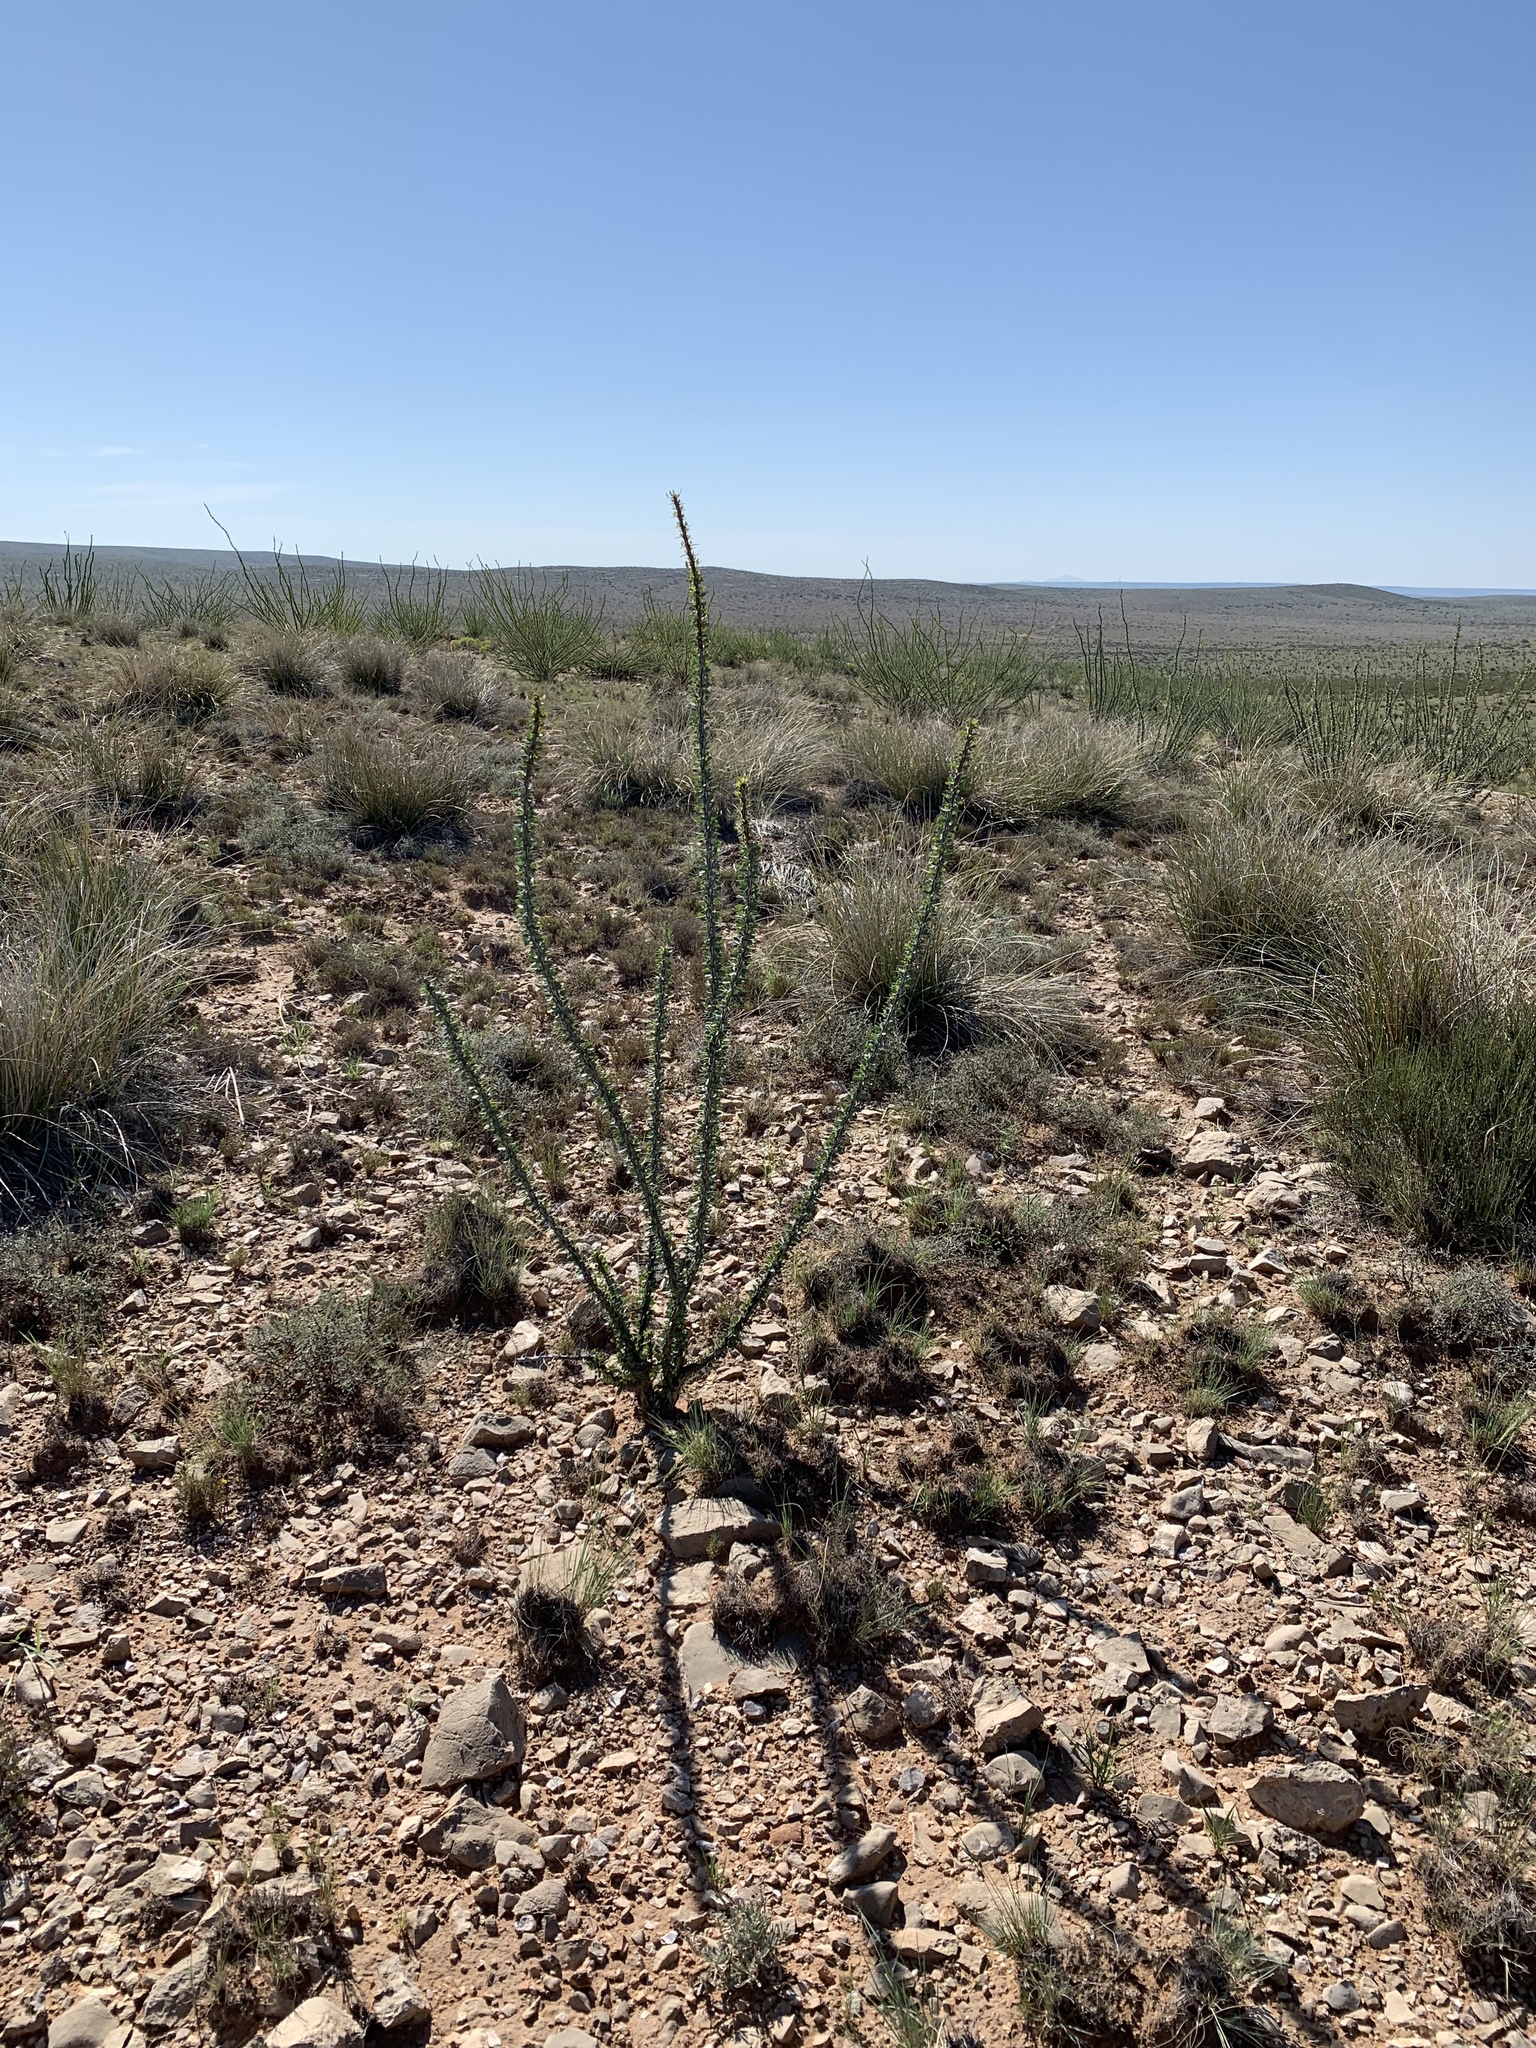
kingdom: Plantae
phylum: Tracheophyta
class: Magnoliopsida
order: Ericales
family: Fouquieriaceae
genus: Fouquieria
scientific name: Fouquieria splendens
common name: Vine-cactus
